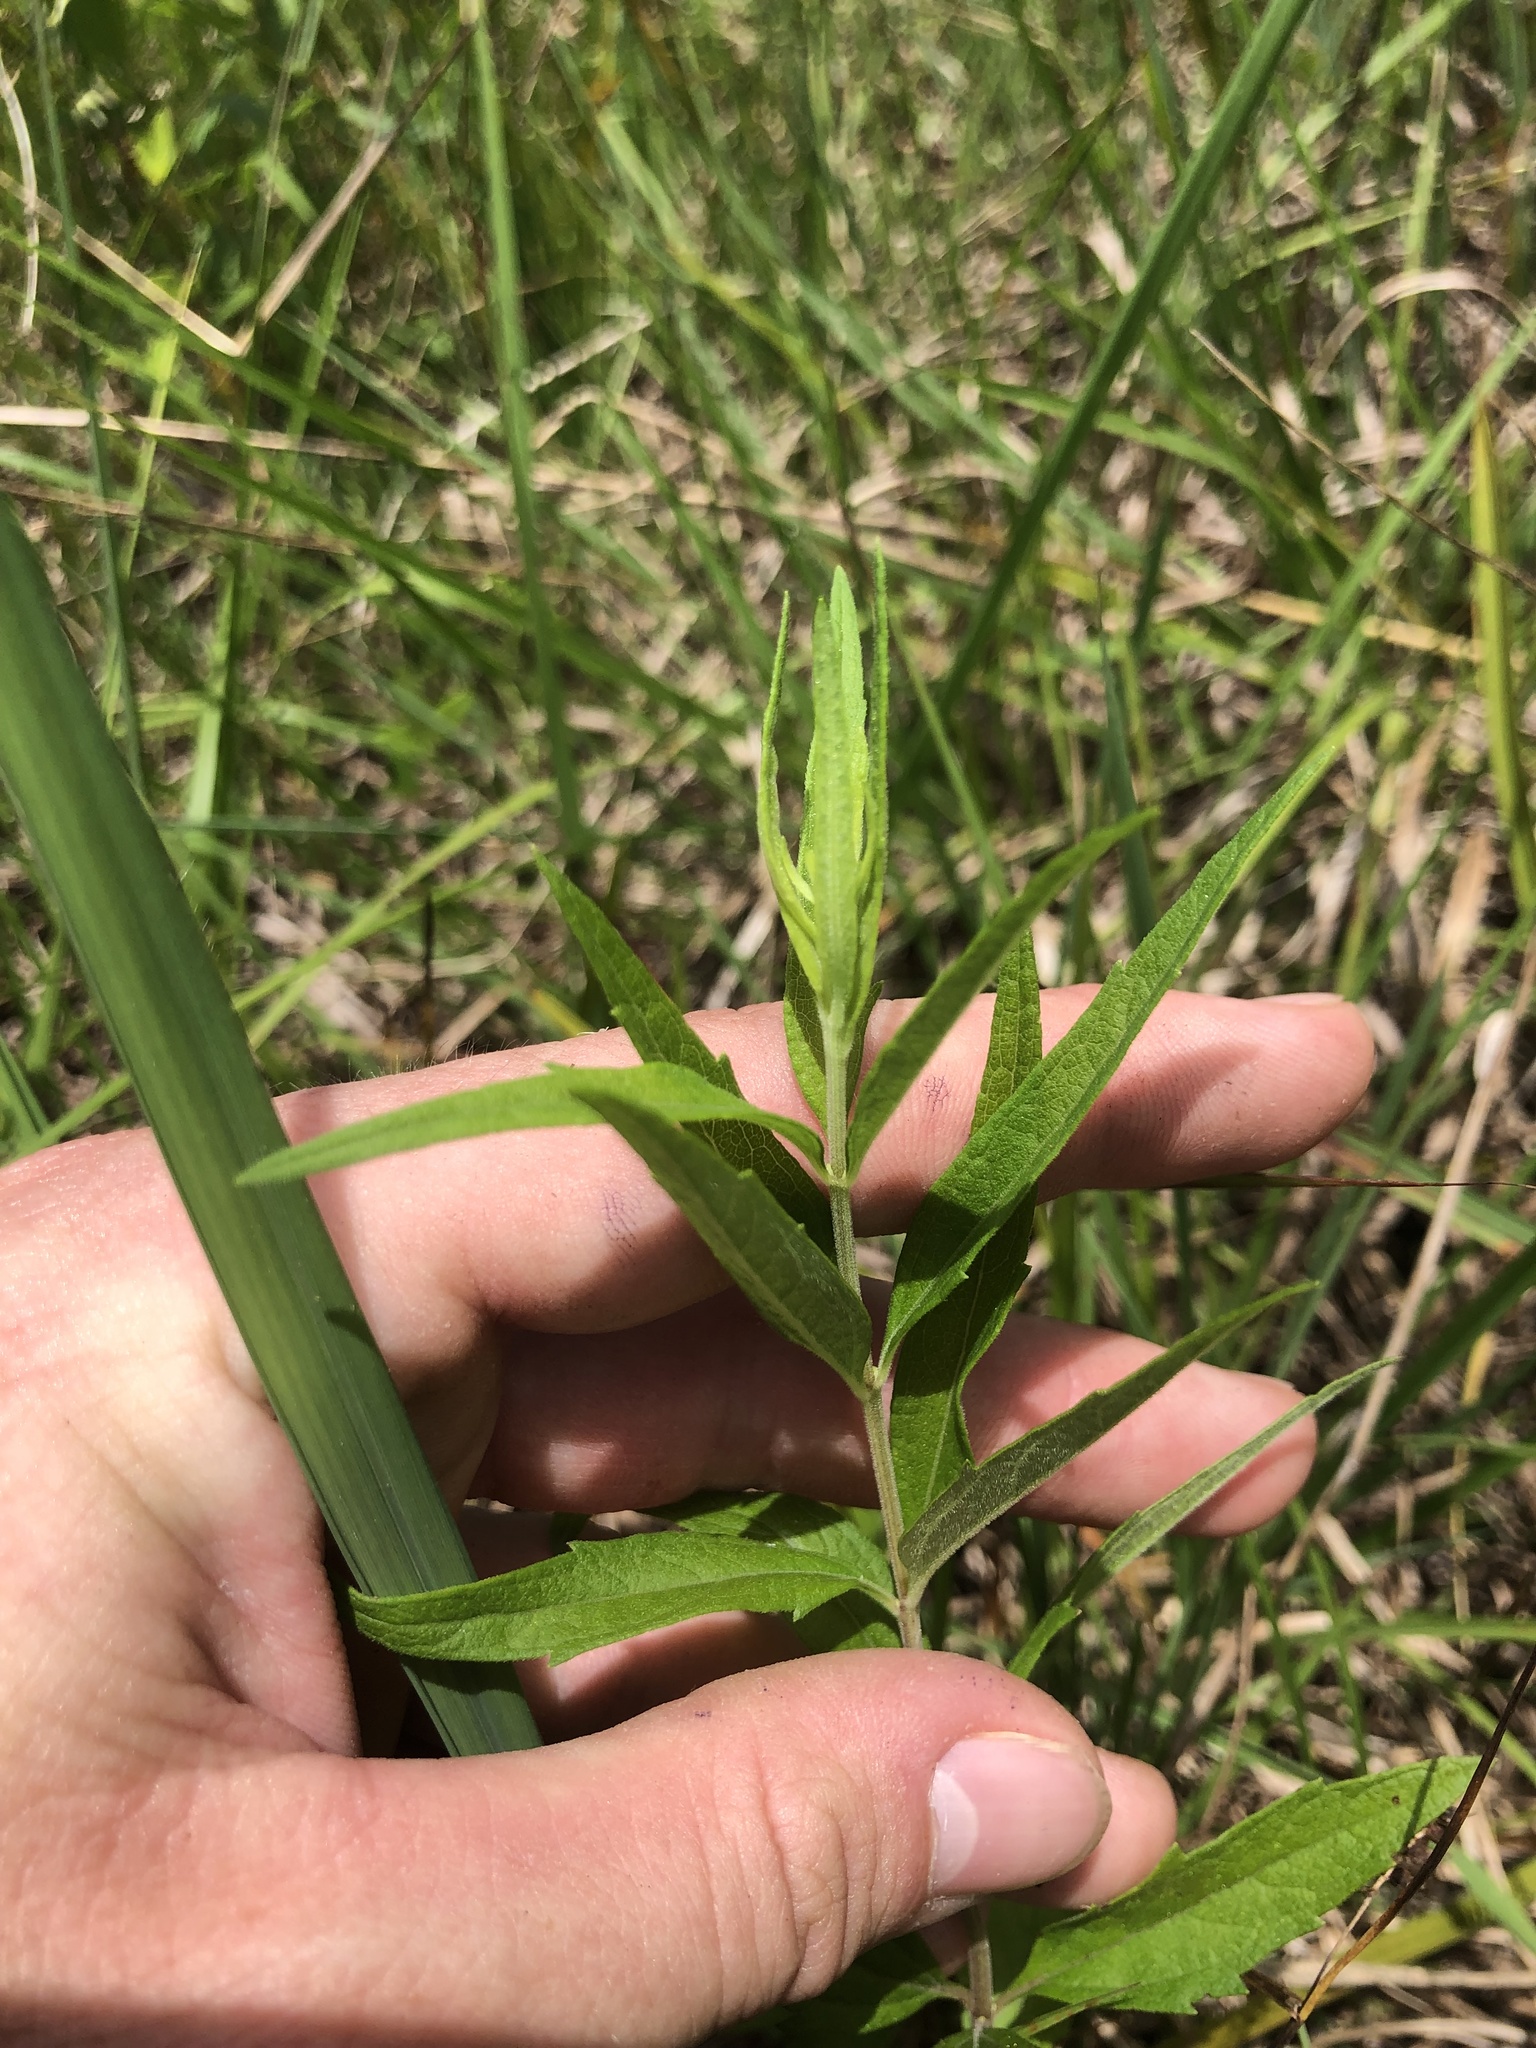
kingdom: Plantae
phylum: Tracheophyta
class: Magnoliopsida
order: Asterales
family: Asteraceae
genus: Brickellia
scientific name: Brickellia macranthra
